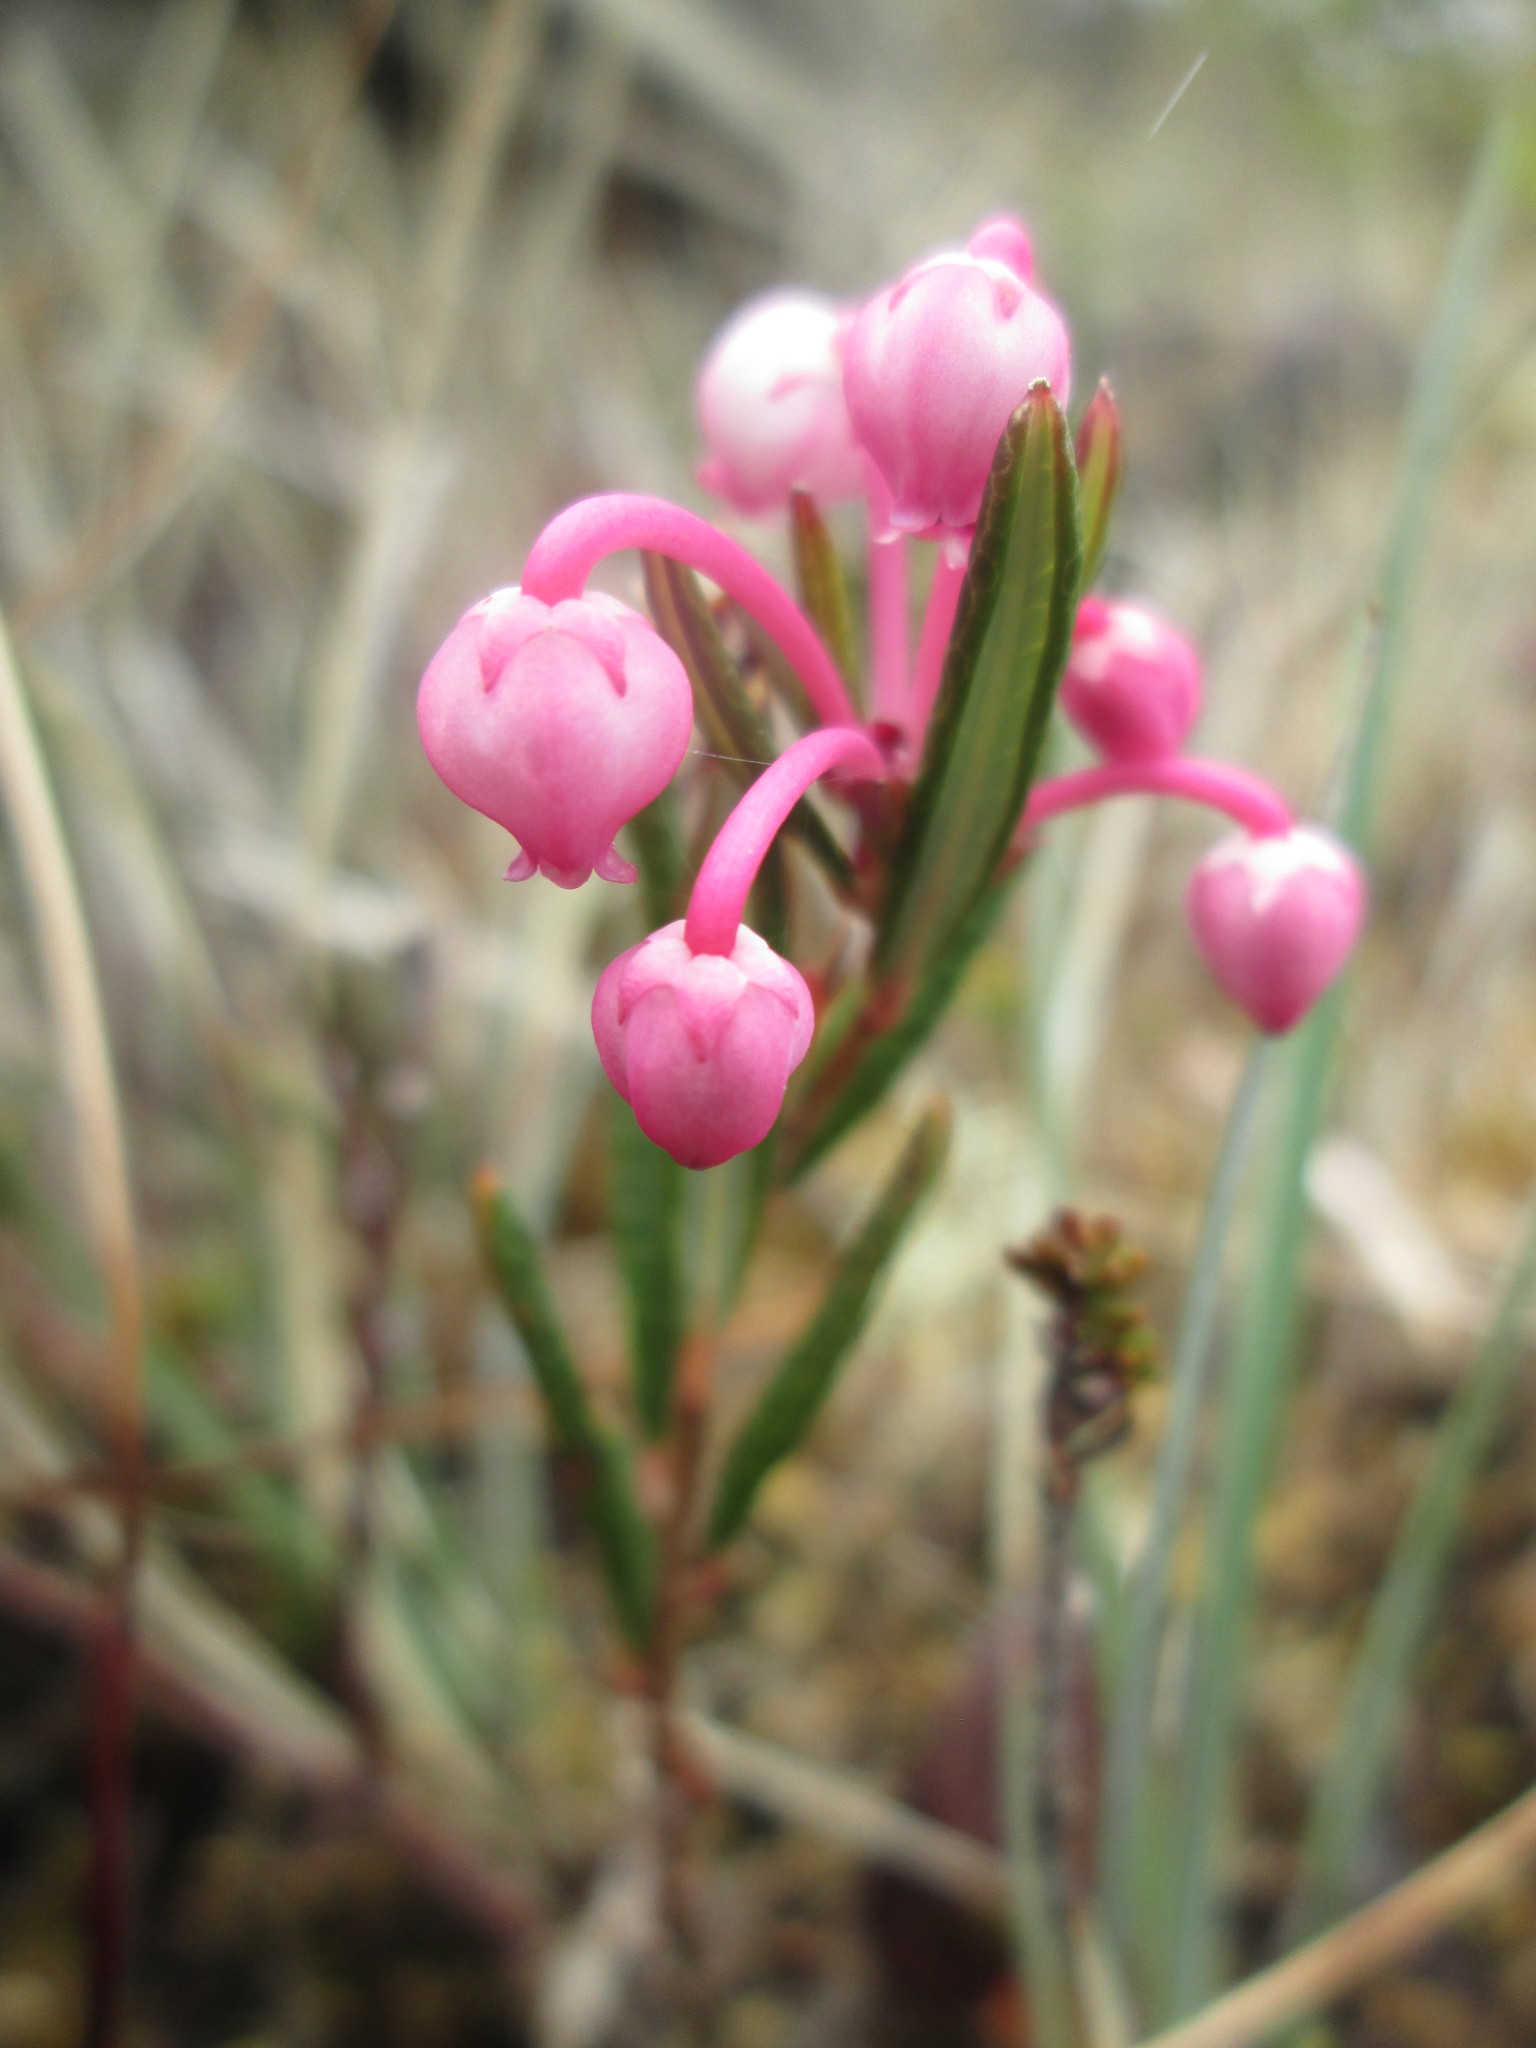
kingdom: Plantae
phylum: Tracheophyta
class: Magnoliopsida
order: Ericales
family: Ericaceae
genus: Andromeda
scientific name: Andromeda polifolia
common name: Bog-rosemary
